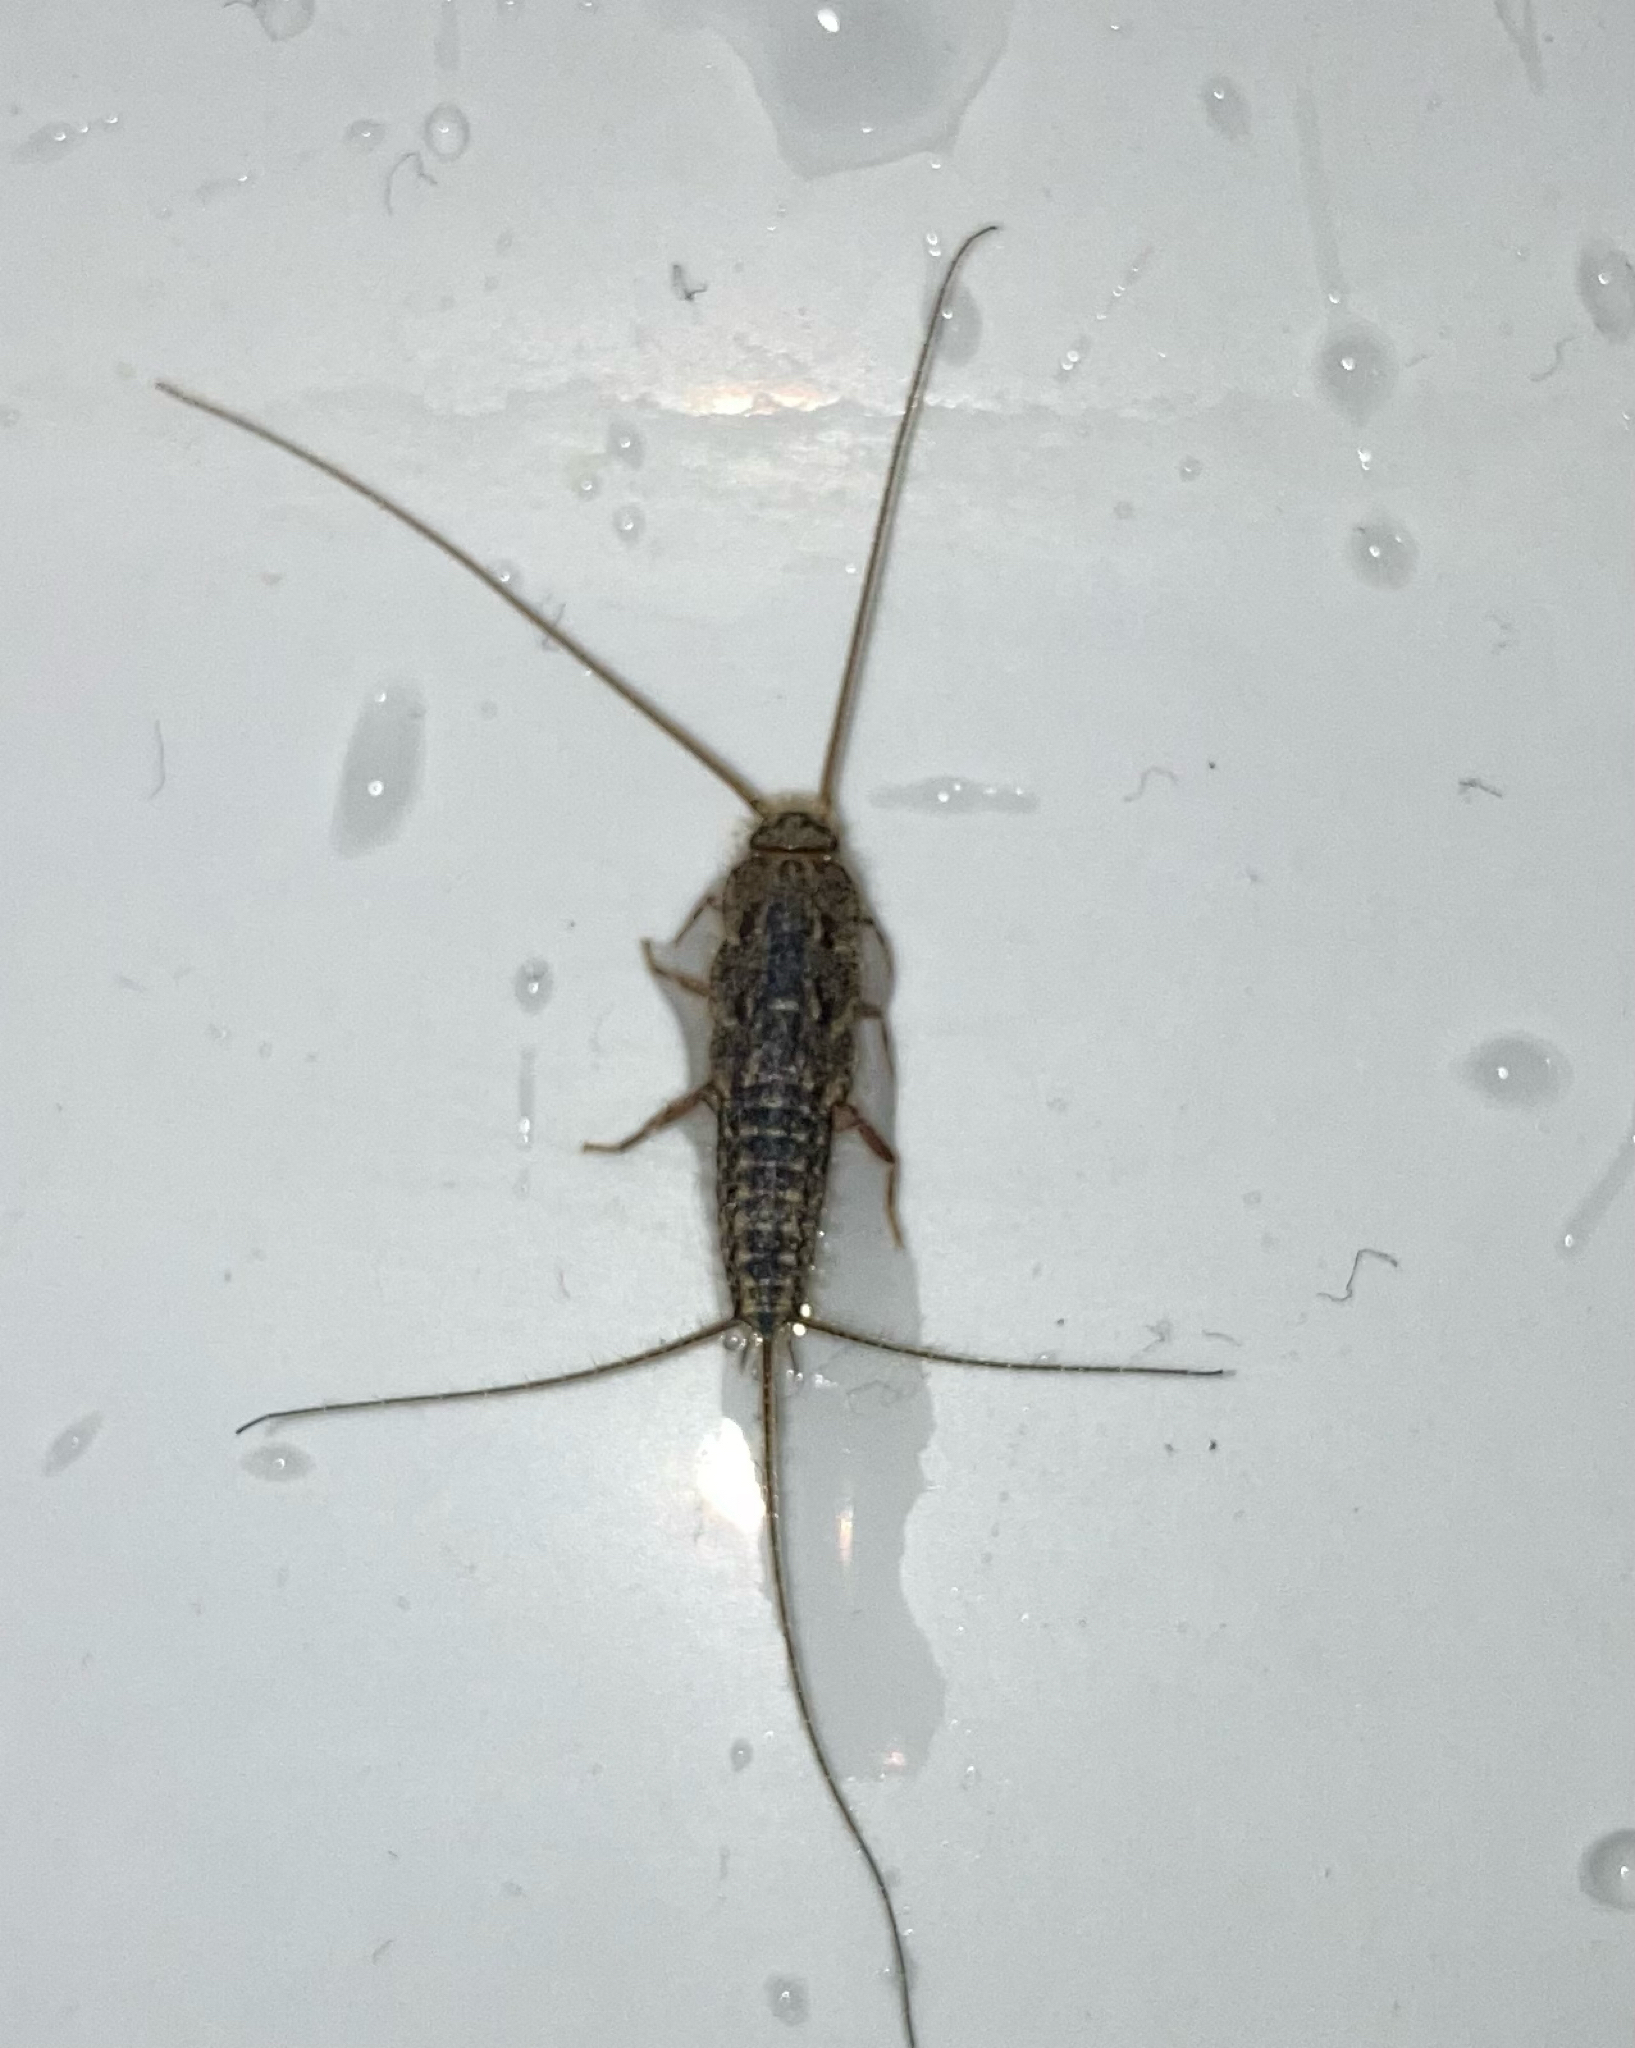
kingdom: Animalia
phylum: Arthropoda
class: Insecta
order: Zygentoma
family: Lepismatidae
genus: Ctenolepisma
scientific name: Ctenolepisma lineata
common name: Four-lined silverfish
